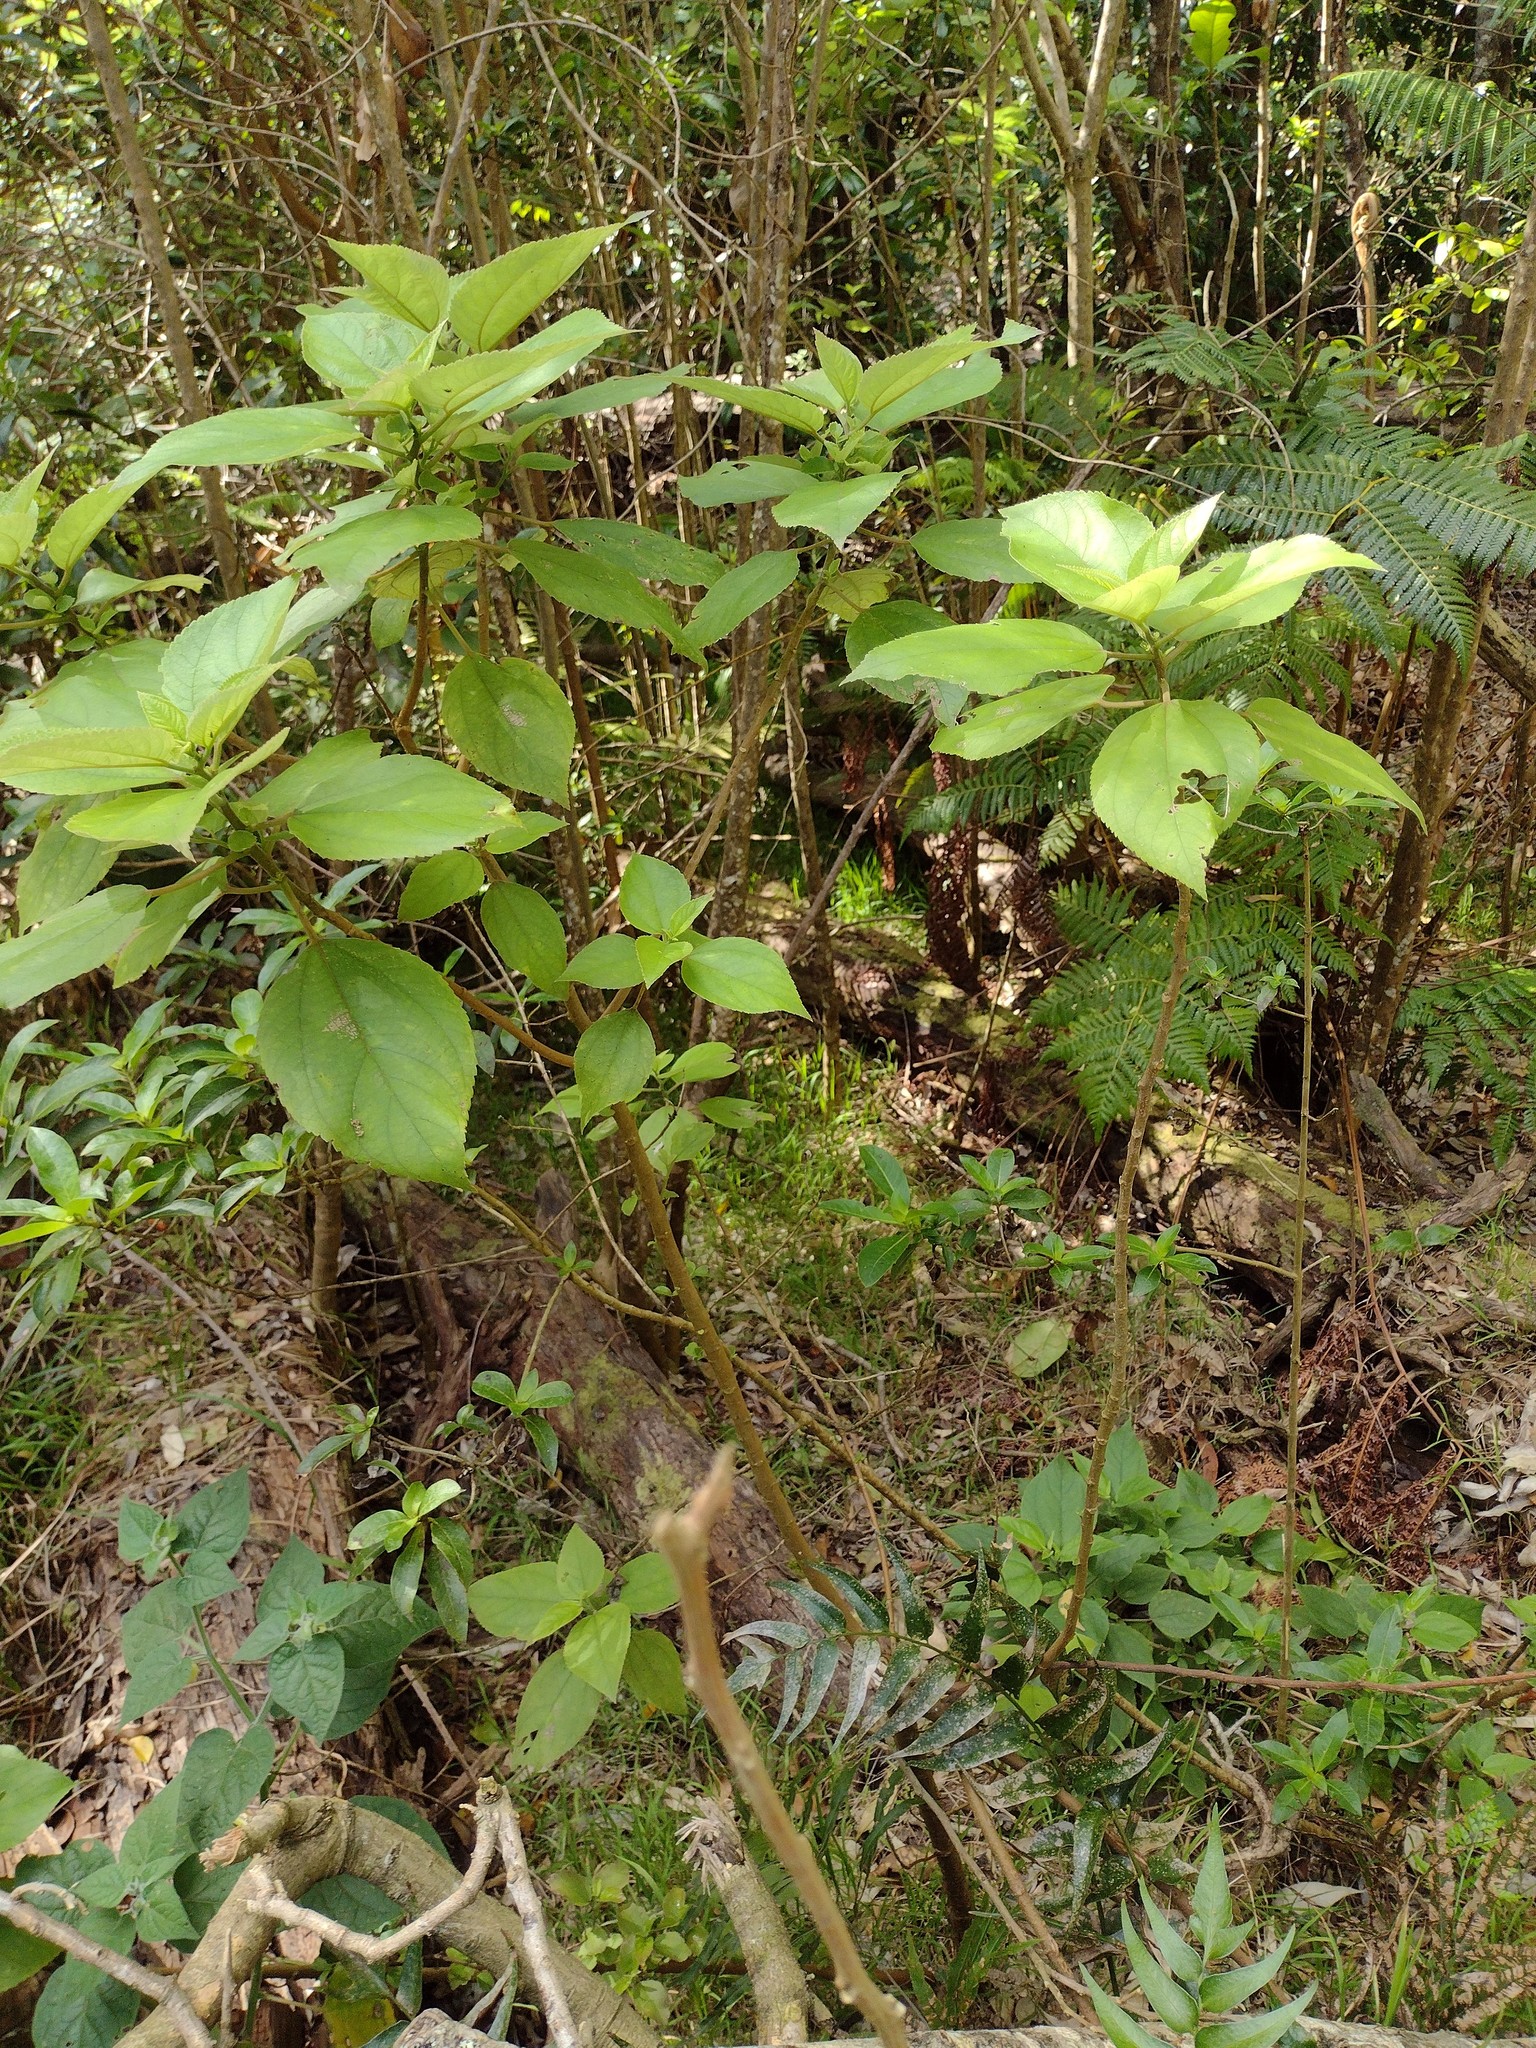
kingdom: Plantae
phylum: Tracheophyta
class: Magnoliopsida
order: Rosales
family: Urticaceae
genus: Pipturus
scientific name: Pipturus albidus
